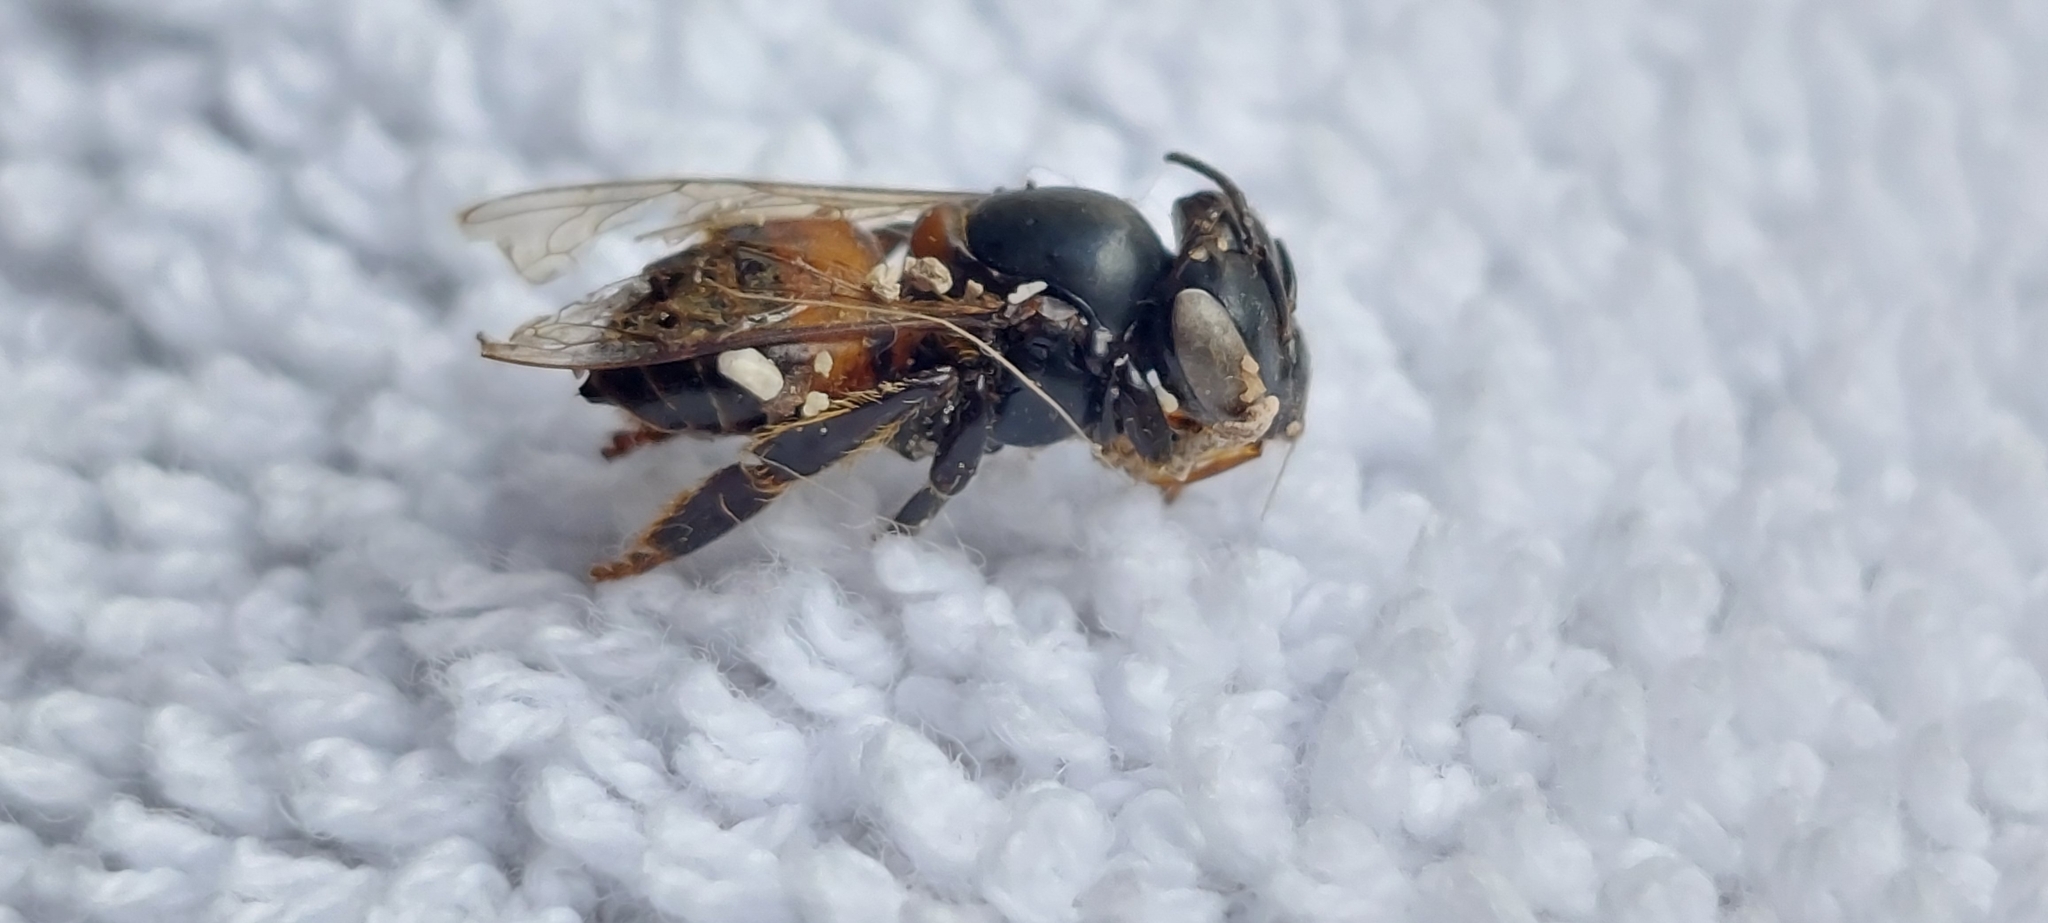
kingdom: Animalia
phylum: Arthropoda
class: Insecta
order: Hymenoptera
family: Apidae
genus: Apis
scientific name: Apis mellifera
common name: Honey bee
